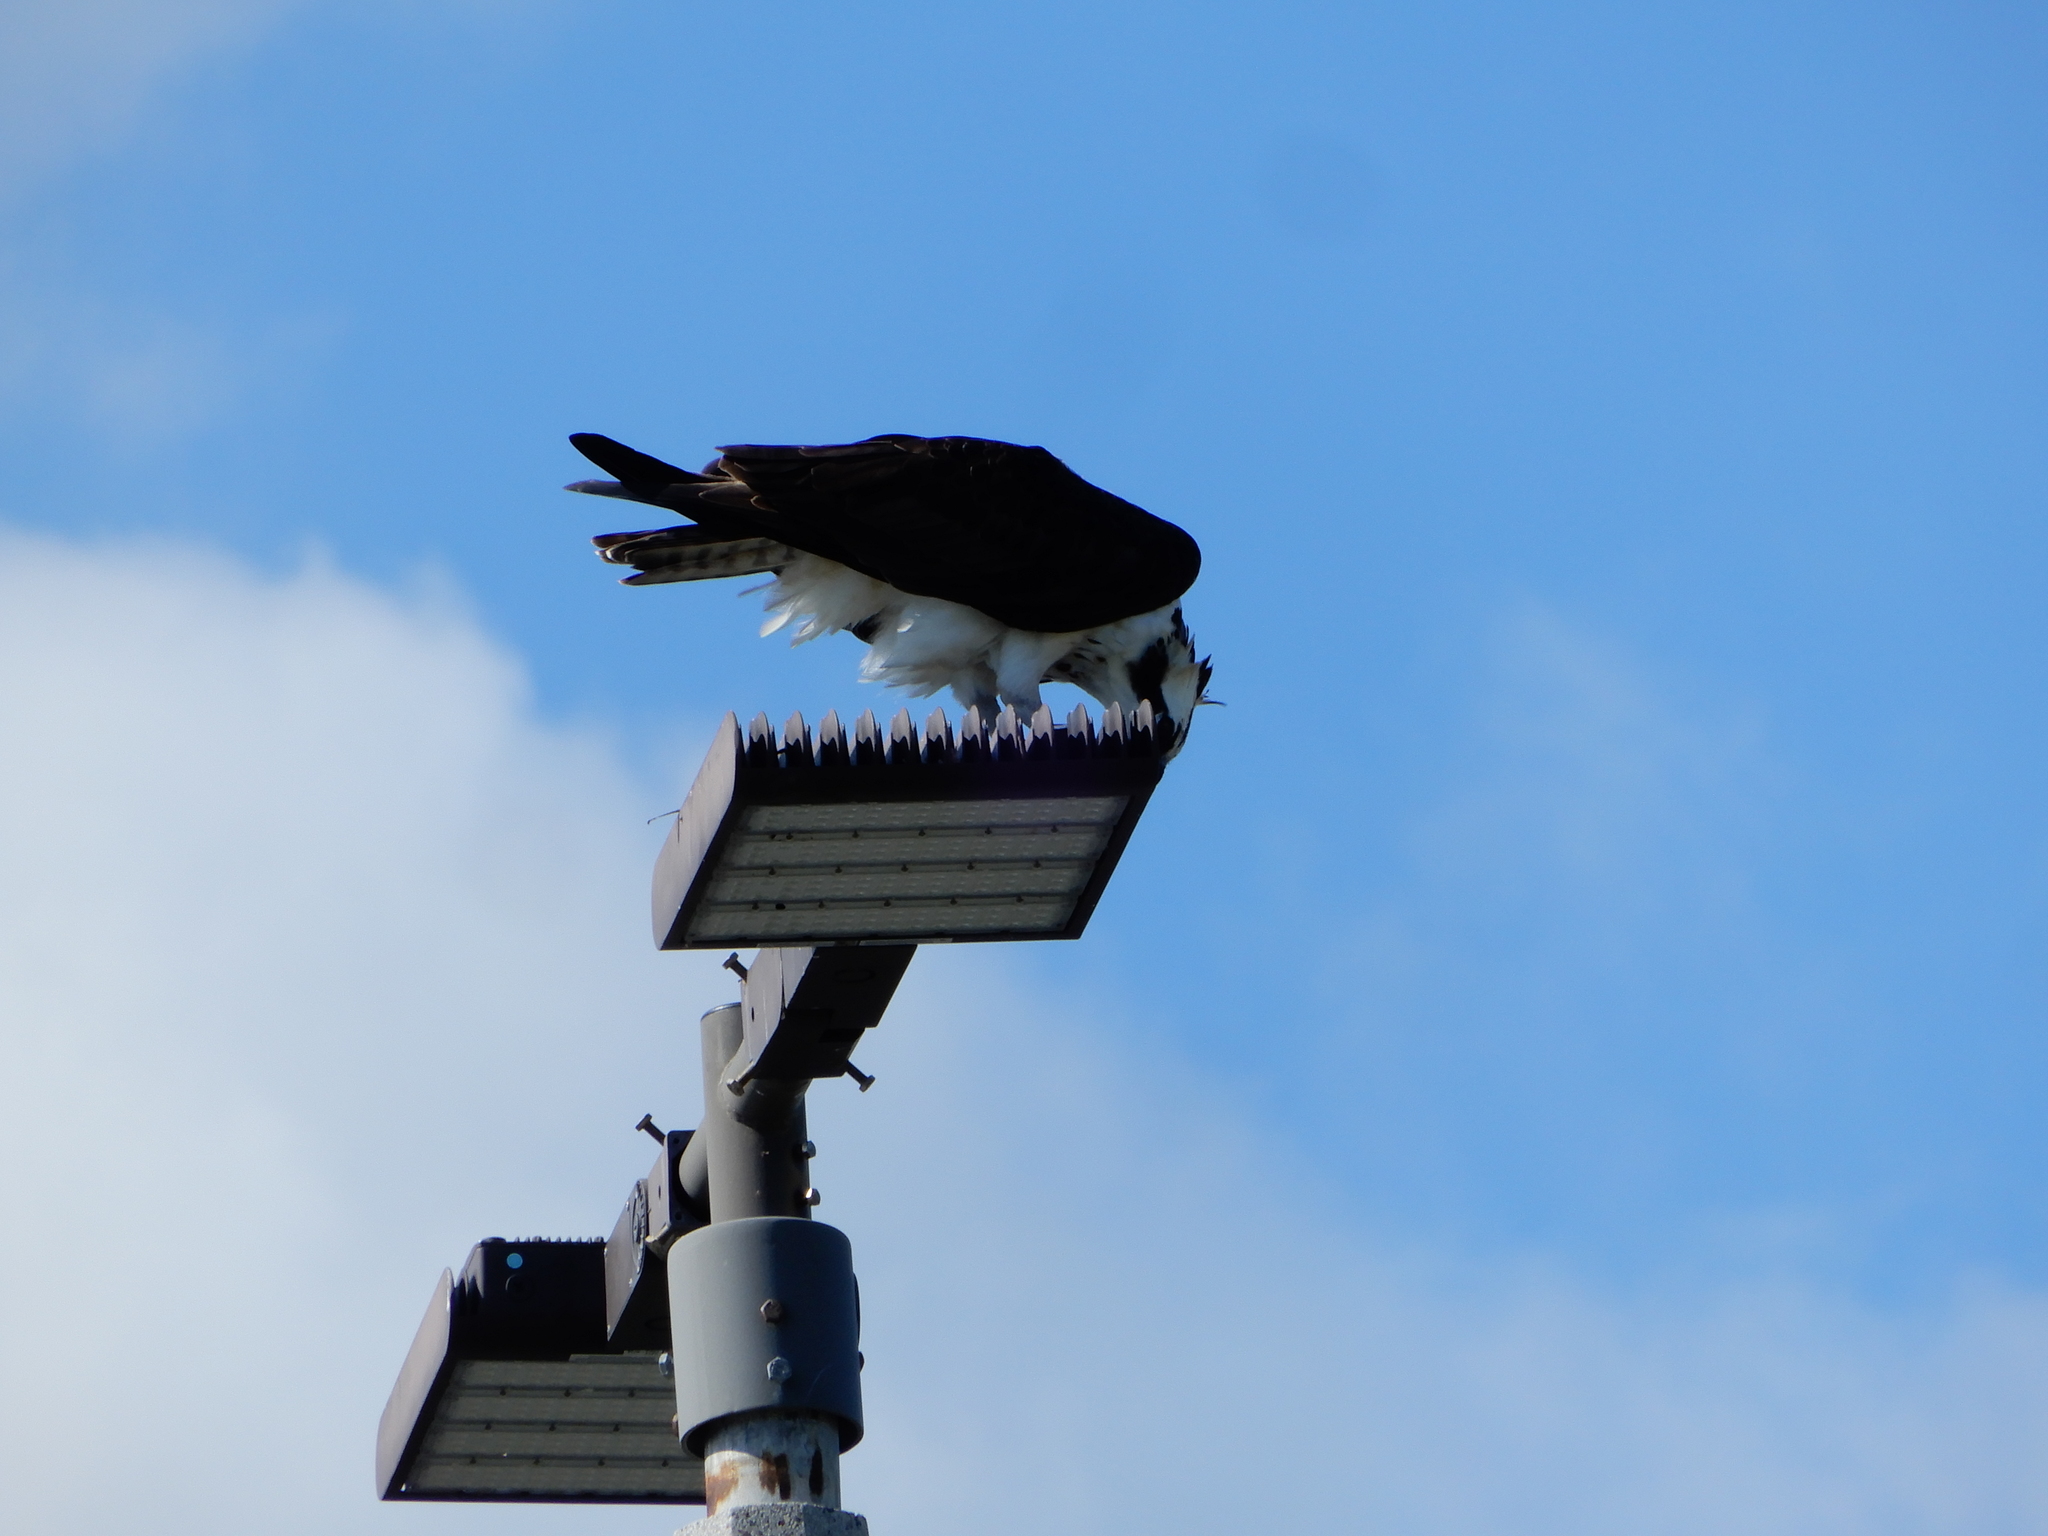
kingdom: Animalia
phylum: Chordata
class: Aves
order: Accipitriformes
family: Pandionidae
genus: Pandion
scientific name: Pandion haliaetus
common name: Osprey
